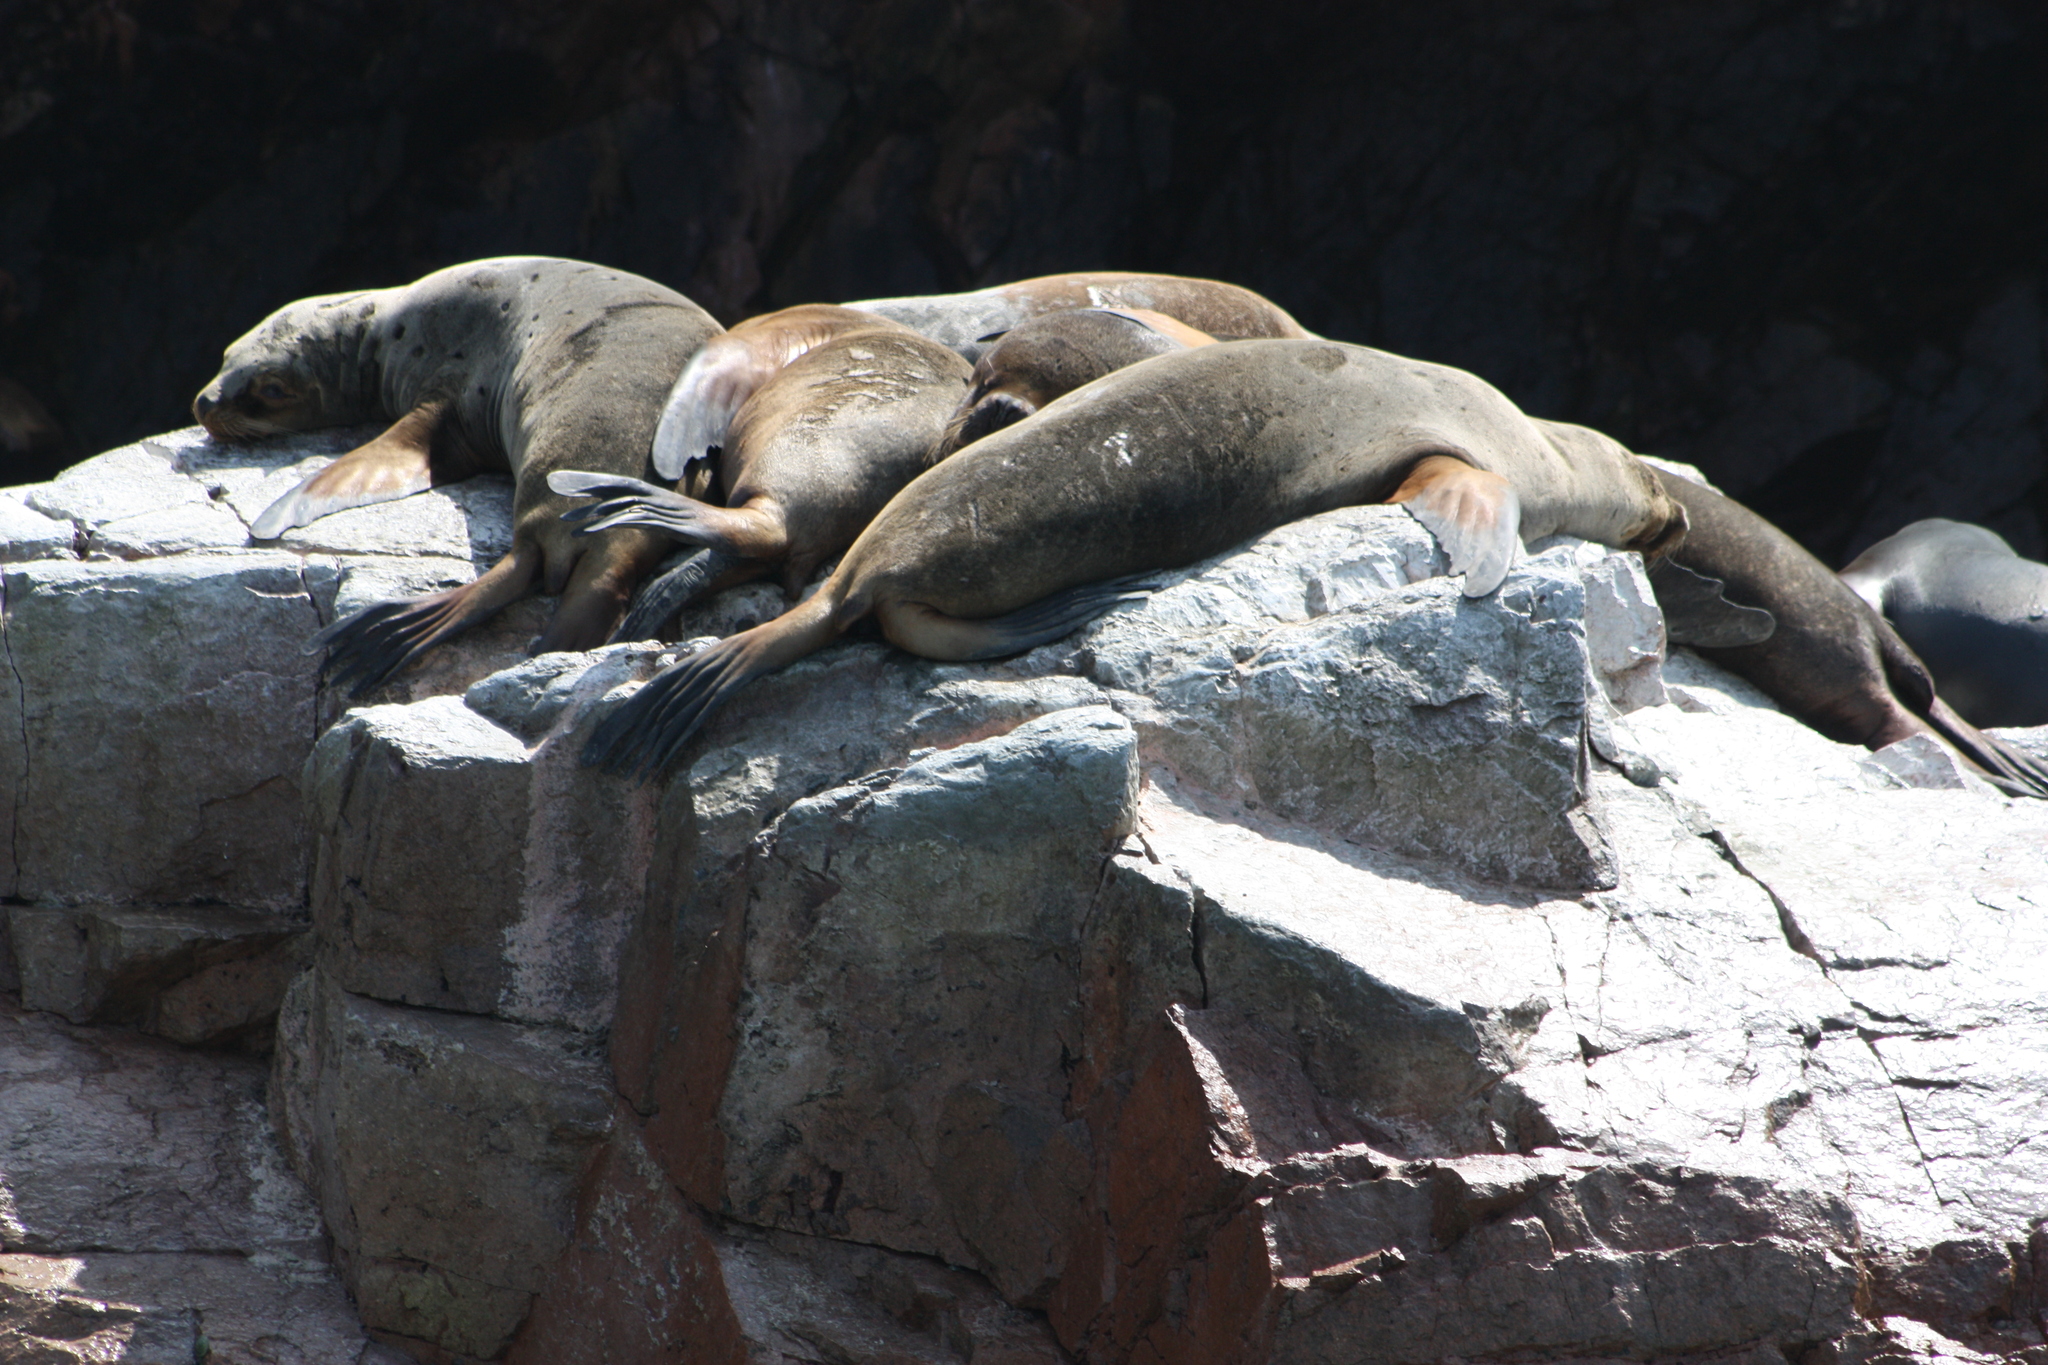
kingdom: Animalia
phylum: Chordata
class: Mammalia
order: Carnivora
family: Otariidae
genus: Otaria
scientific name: Otaria byronia
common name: South american sea lion
